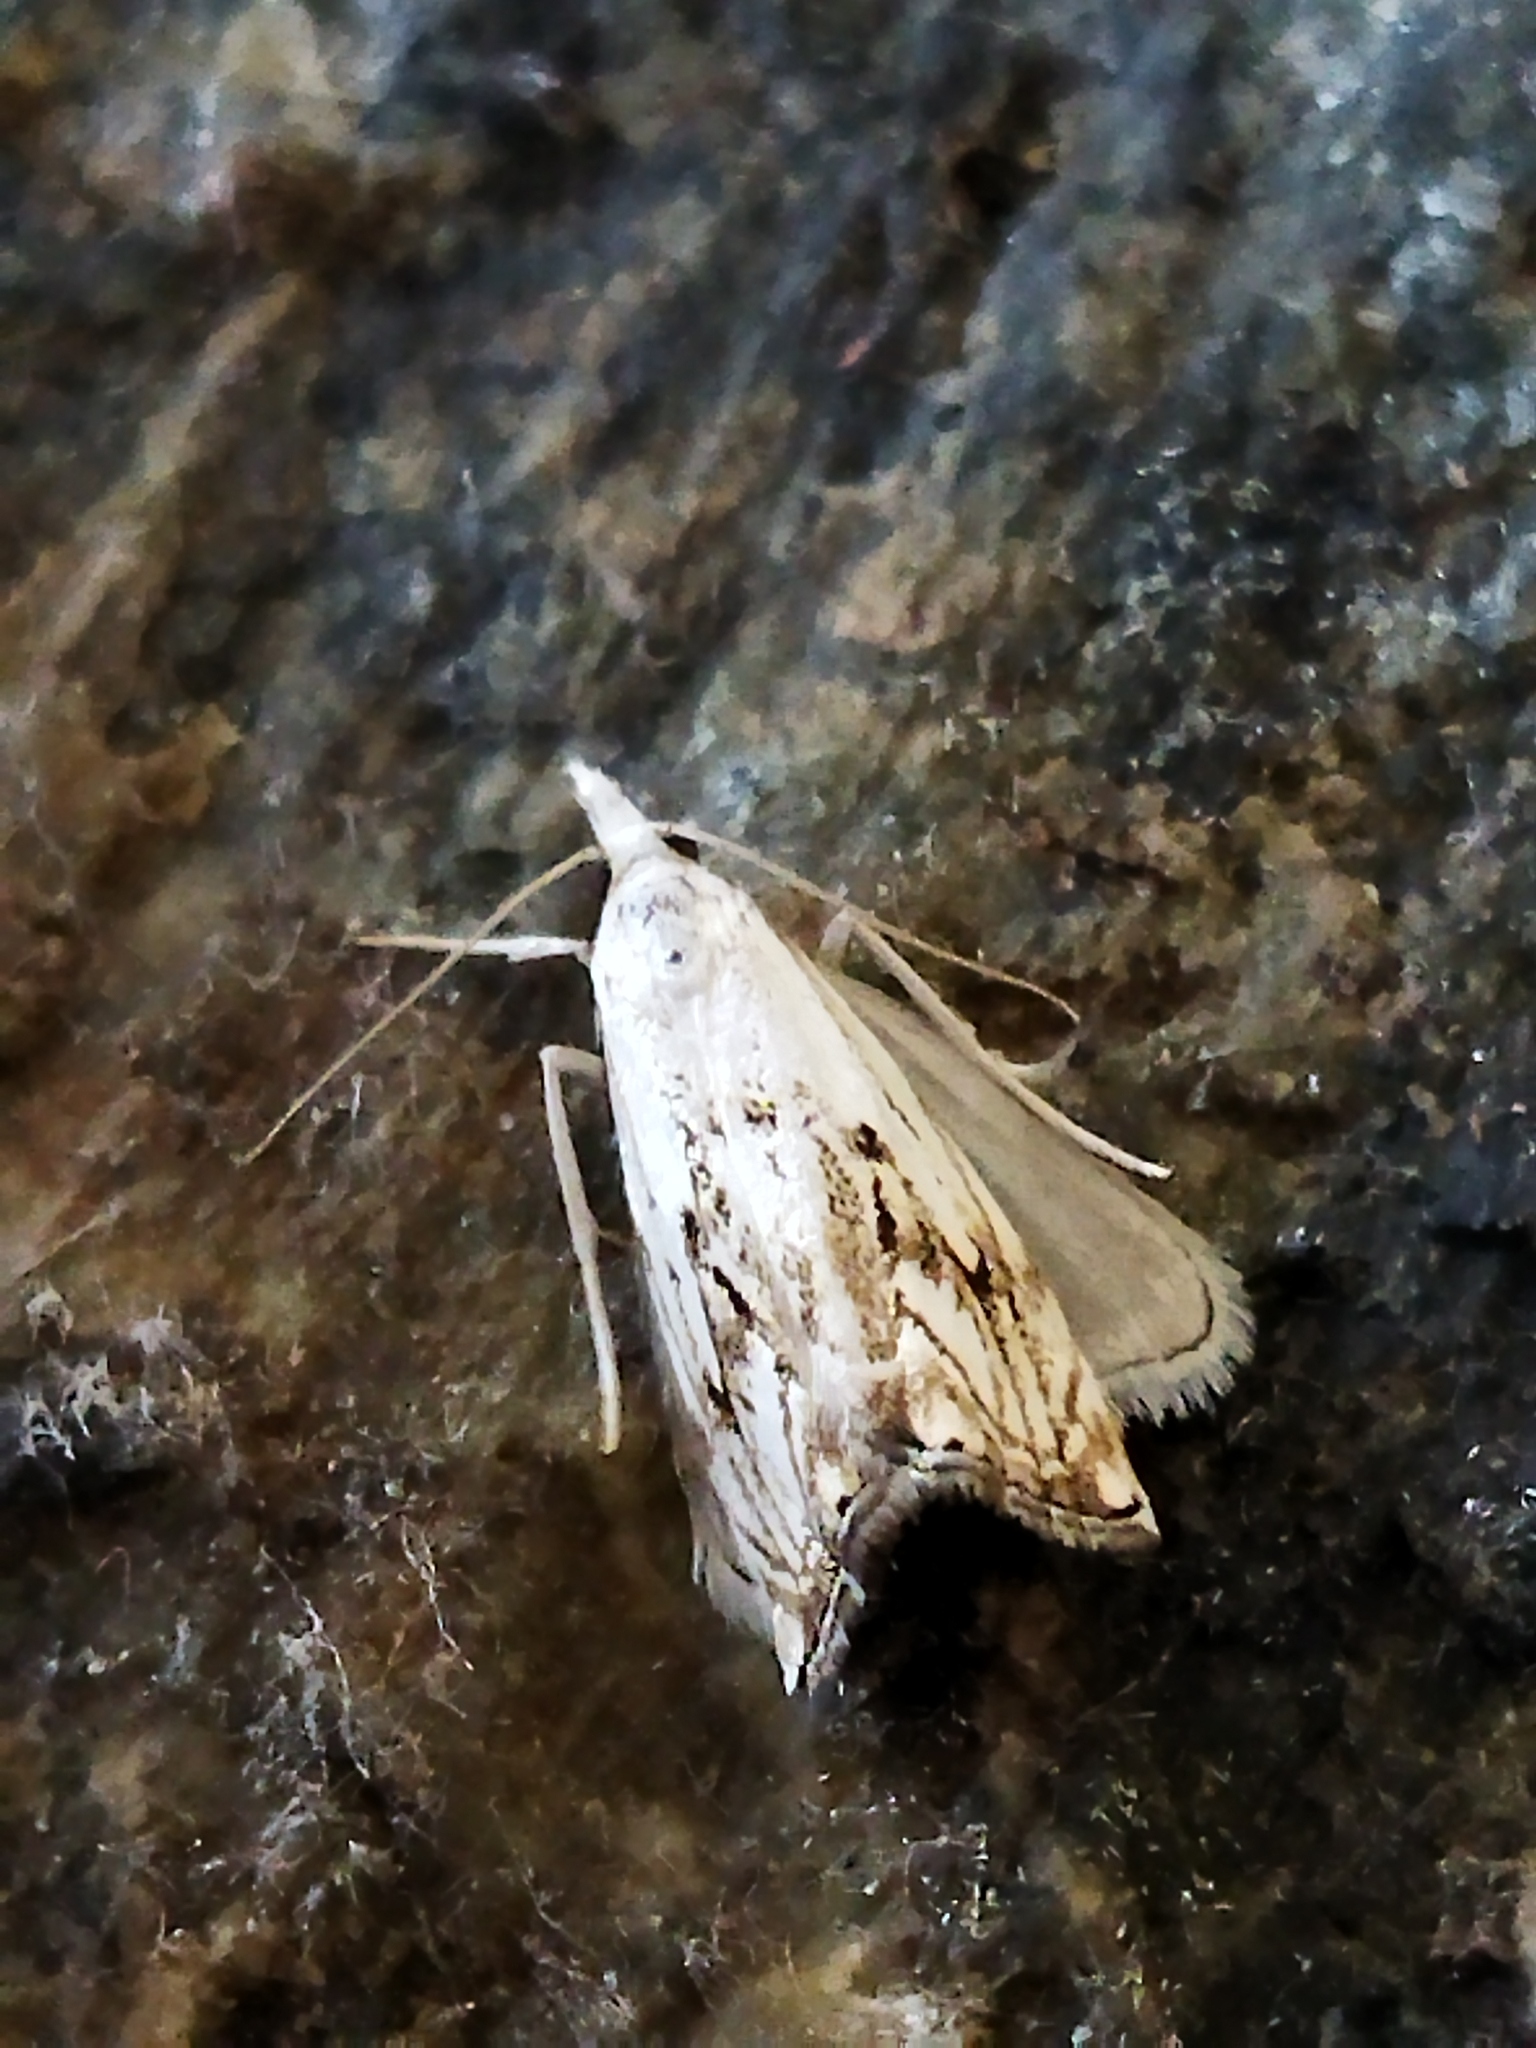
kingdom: Animalia
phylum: Arthropoda
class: Insecta
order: Lepidoptera
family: Crambidae
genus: Catoptria
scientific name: Catoptria falsella
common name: Chequered grass-veneer
